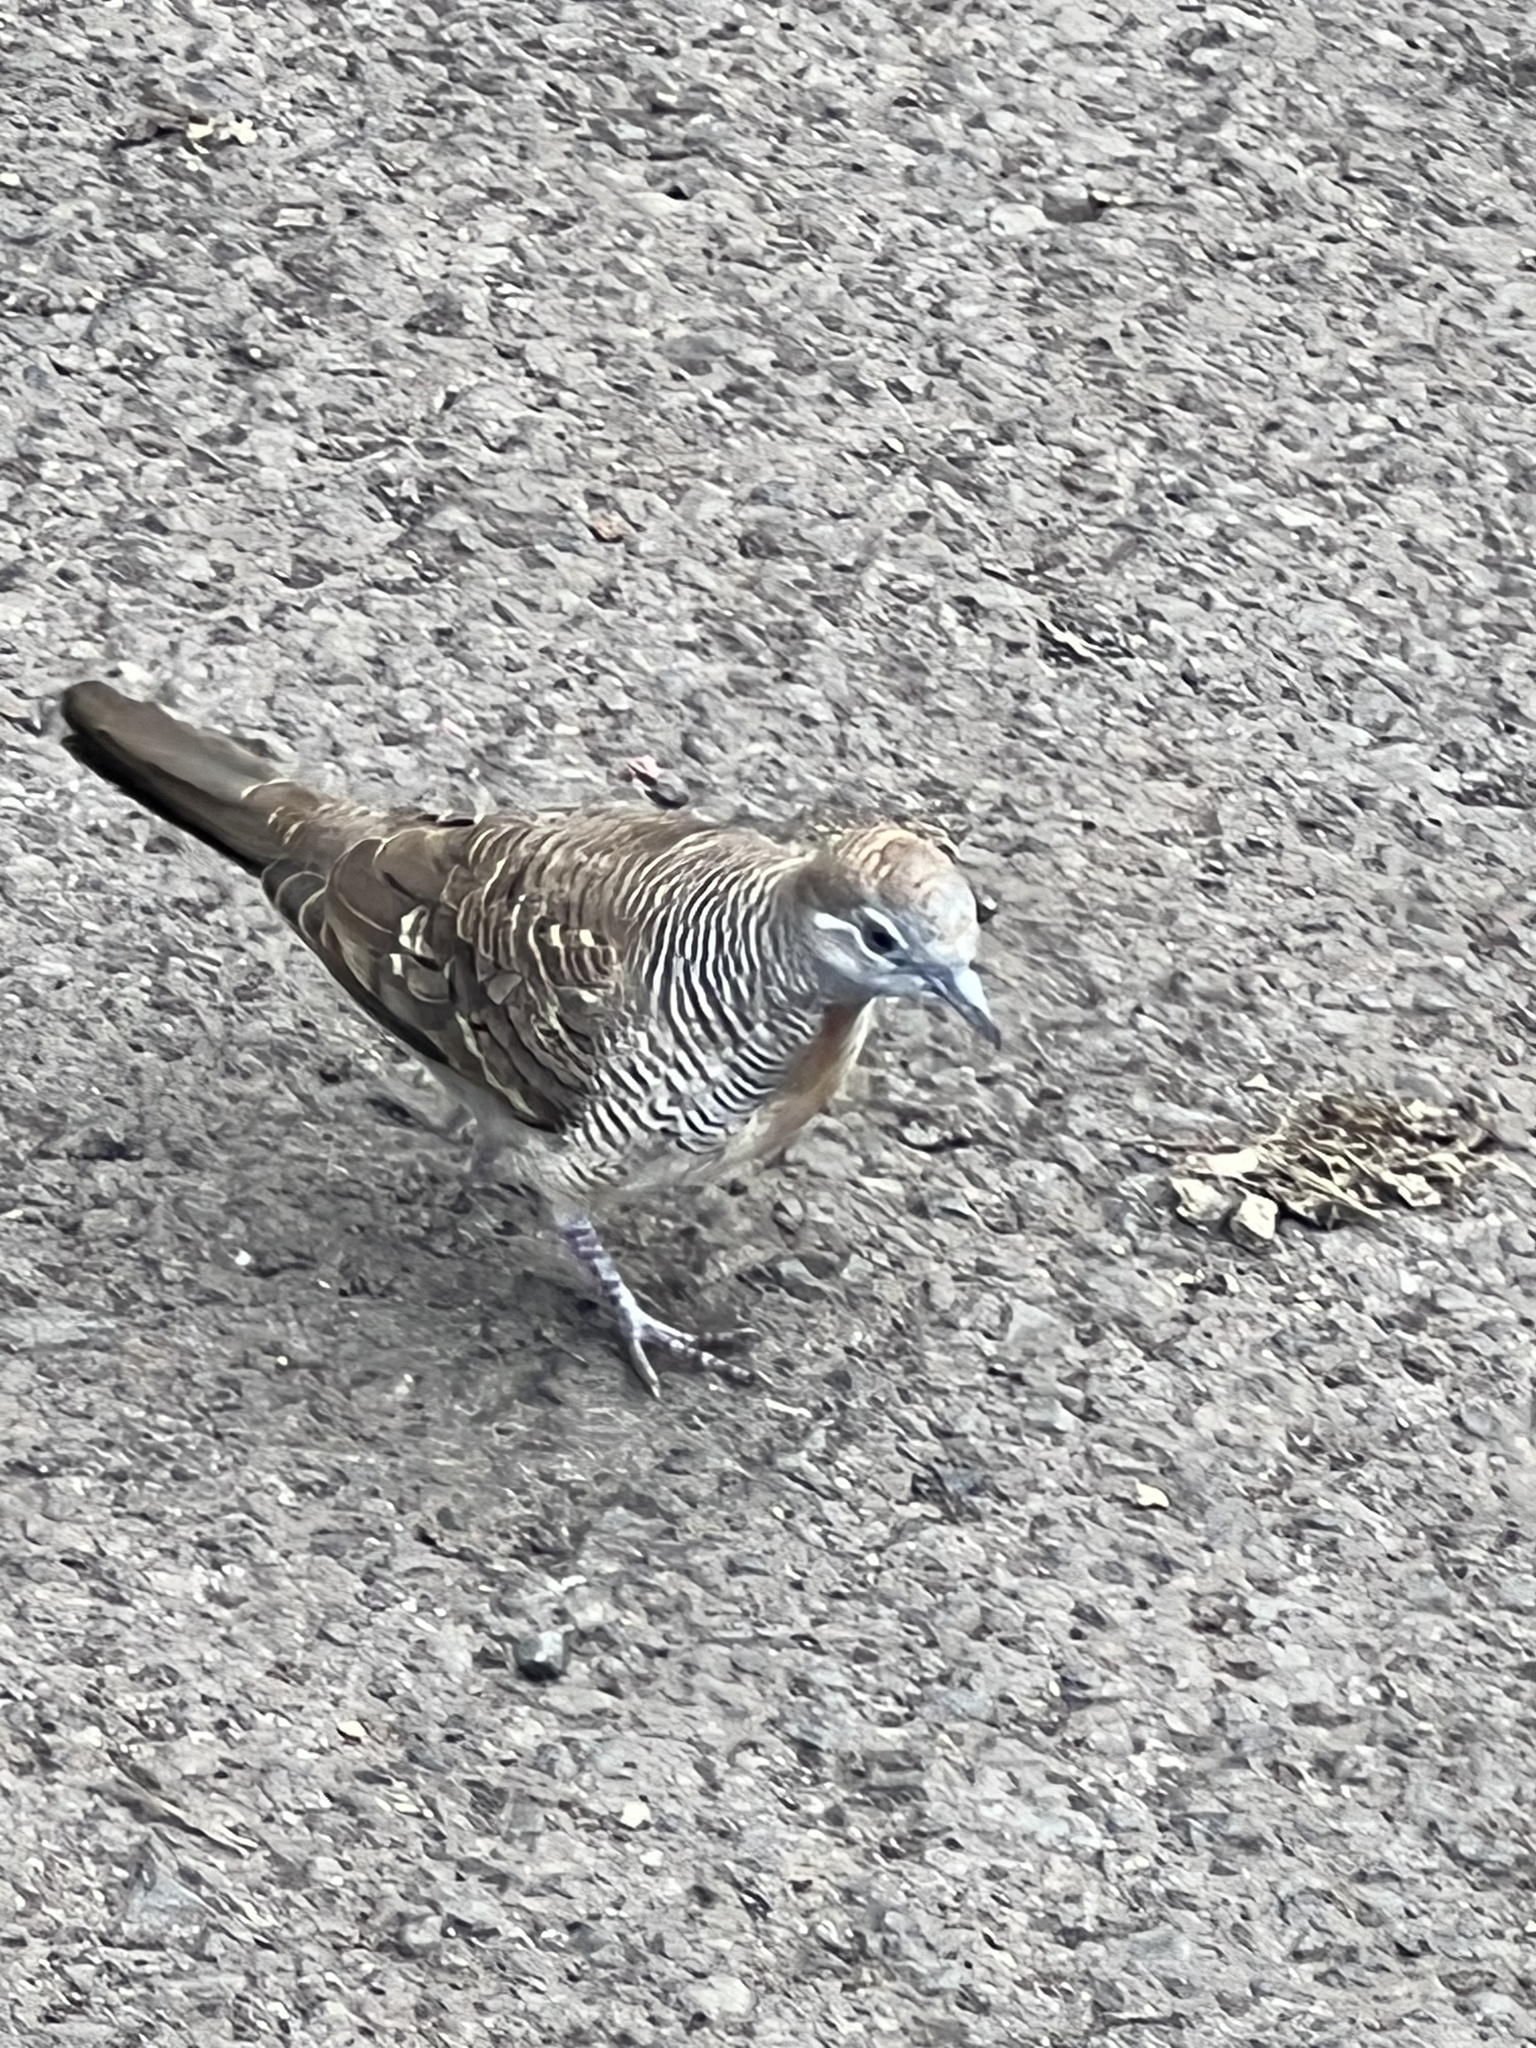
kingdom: Animalia
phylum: Chordata
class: Aves
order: Columbiformes
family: Columbidae
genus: Geopelia
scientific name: Geopelia striata
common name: Zebra dove
